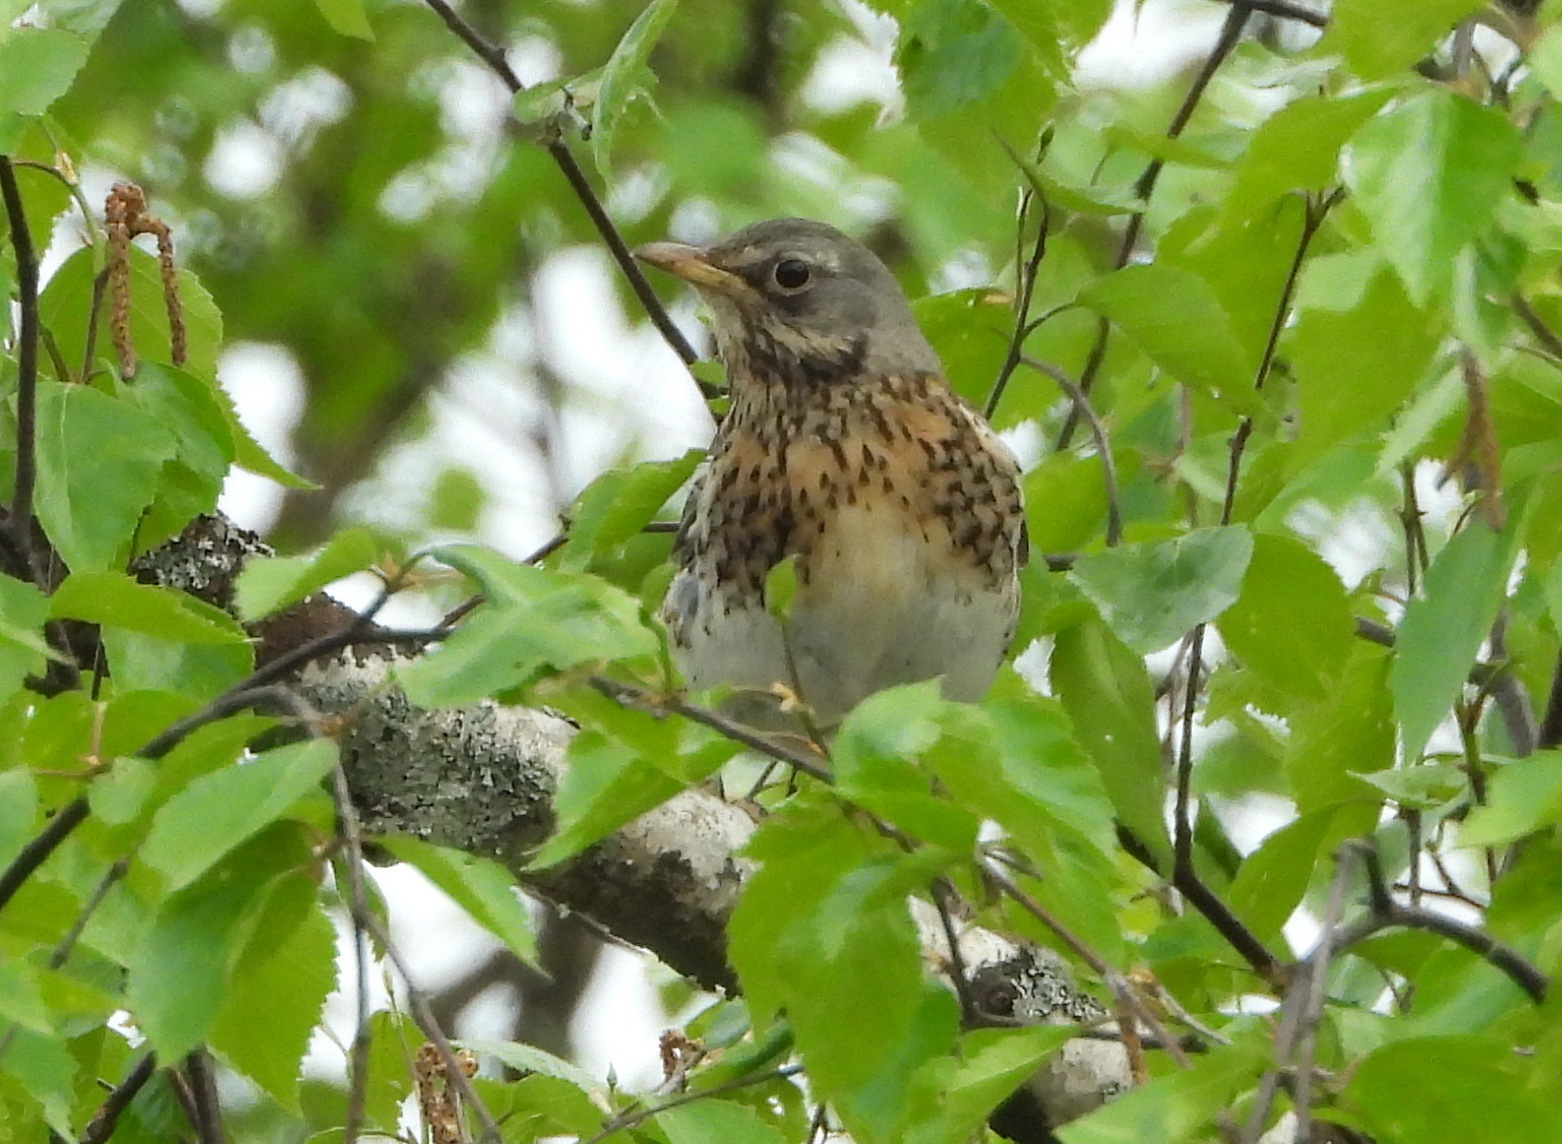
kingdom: Animalia
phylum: Chordata
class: Aves
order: Passeriformes
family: Turdidae
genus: Turdus
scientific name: Turdus pilaris
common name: Fieldfare
